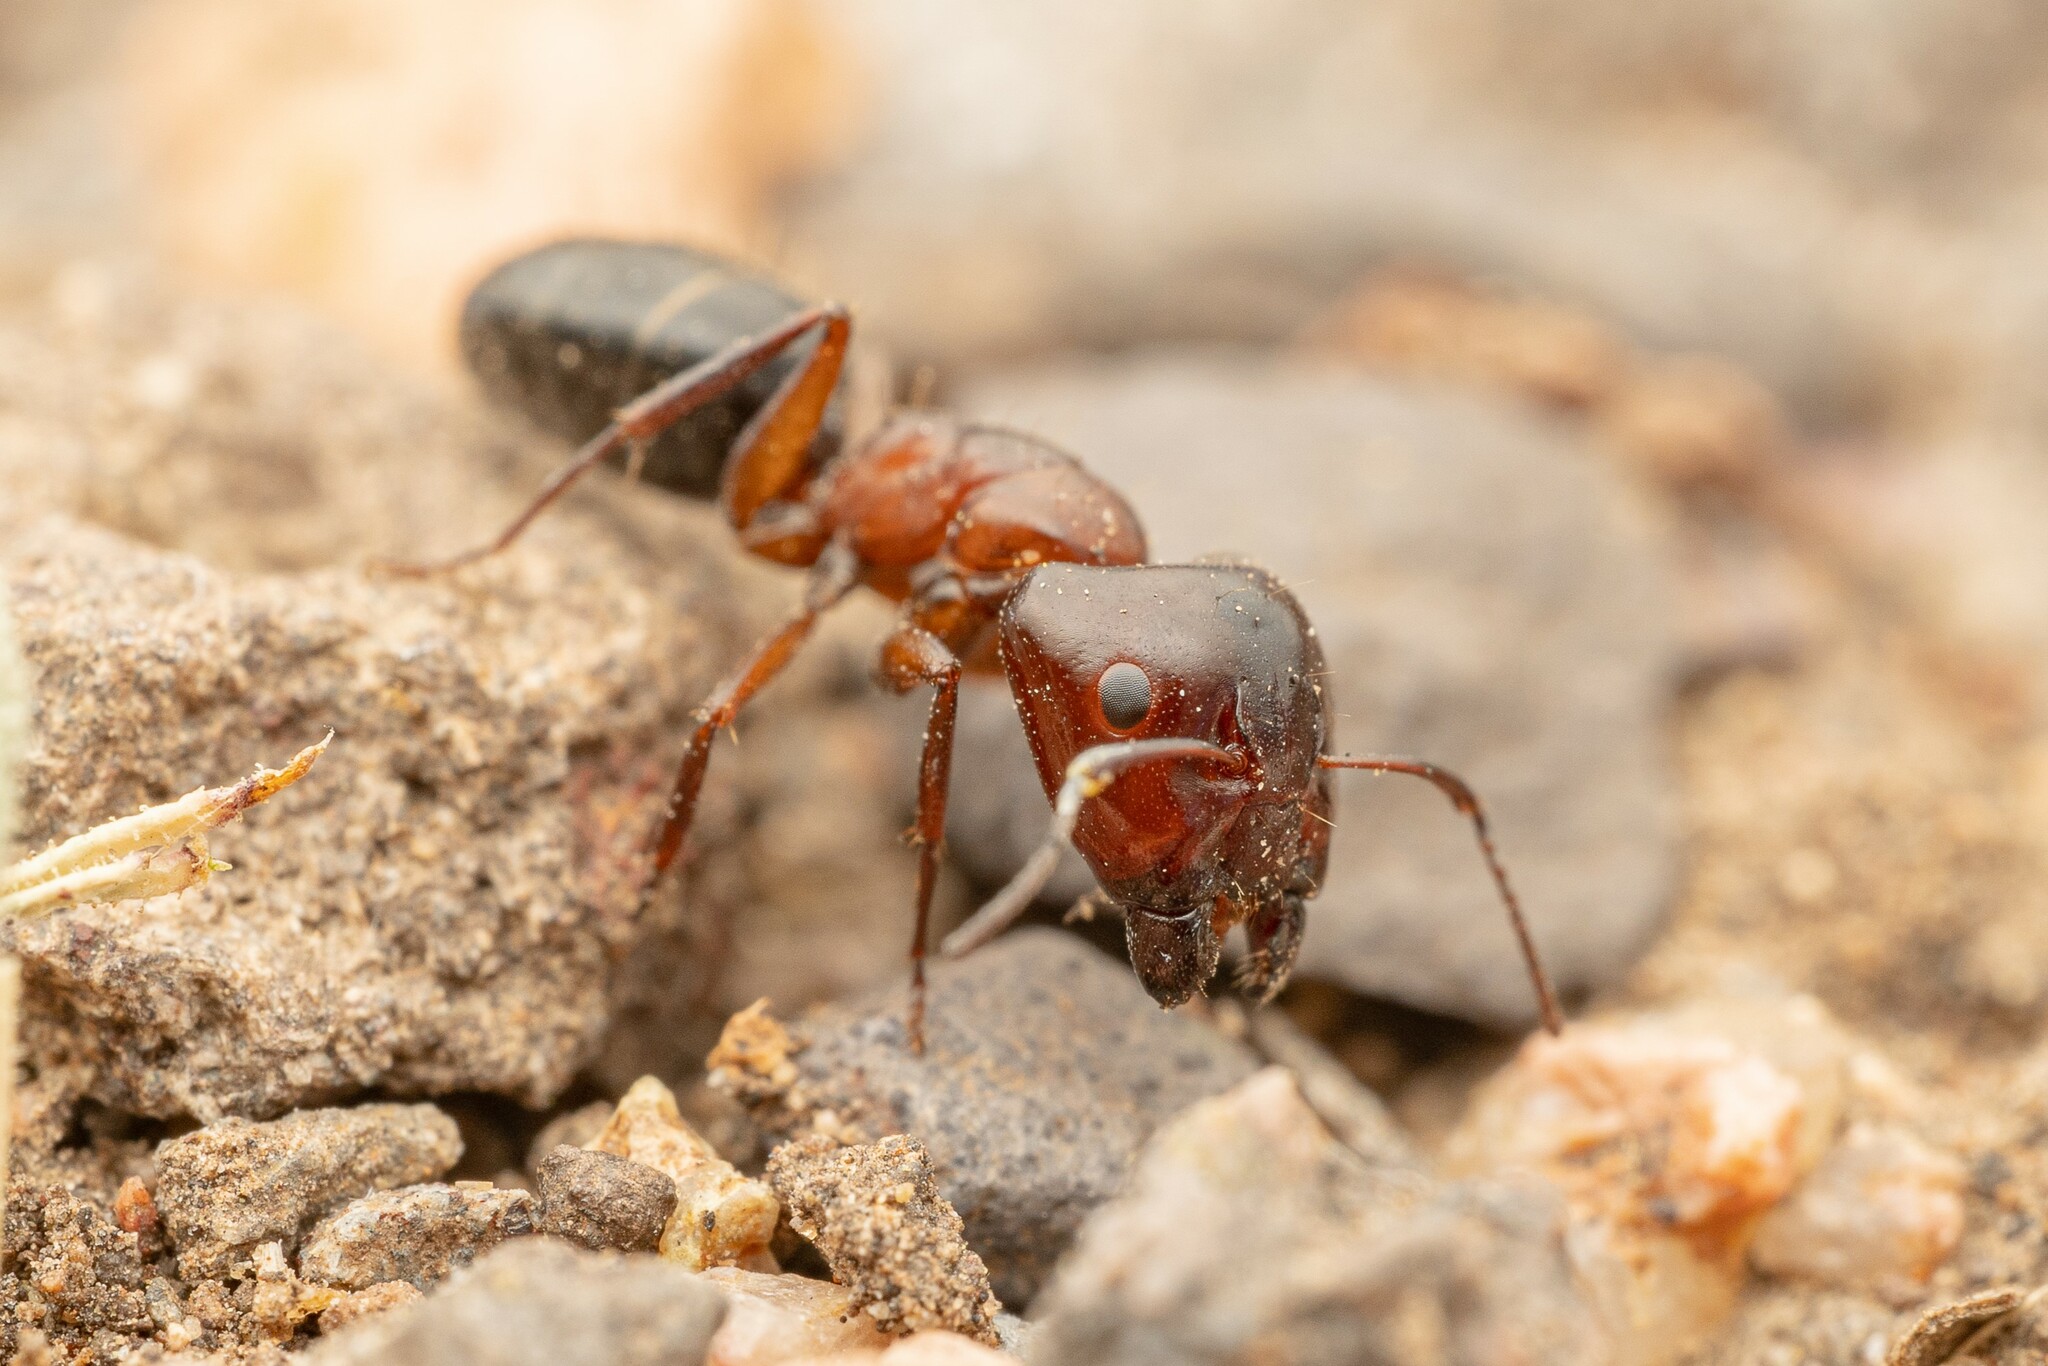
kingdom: Animalia
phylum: Arthropoda
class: Insecta
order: Hymenoptera
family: Formicidae
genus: Camponotus
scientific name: Camponotus hyatti
